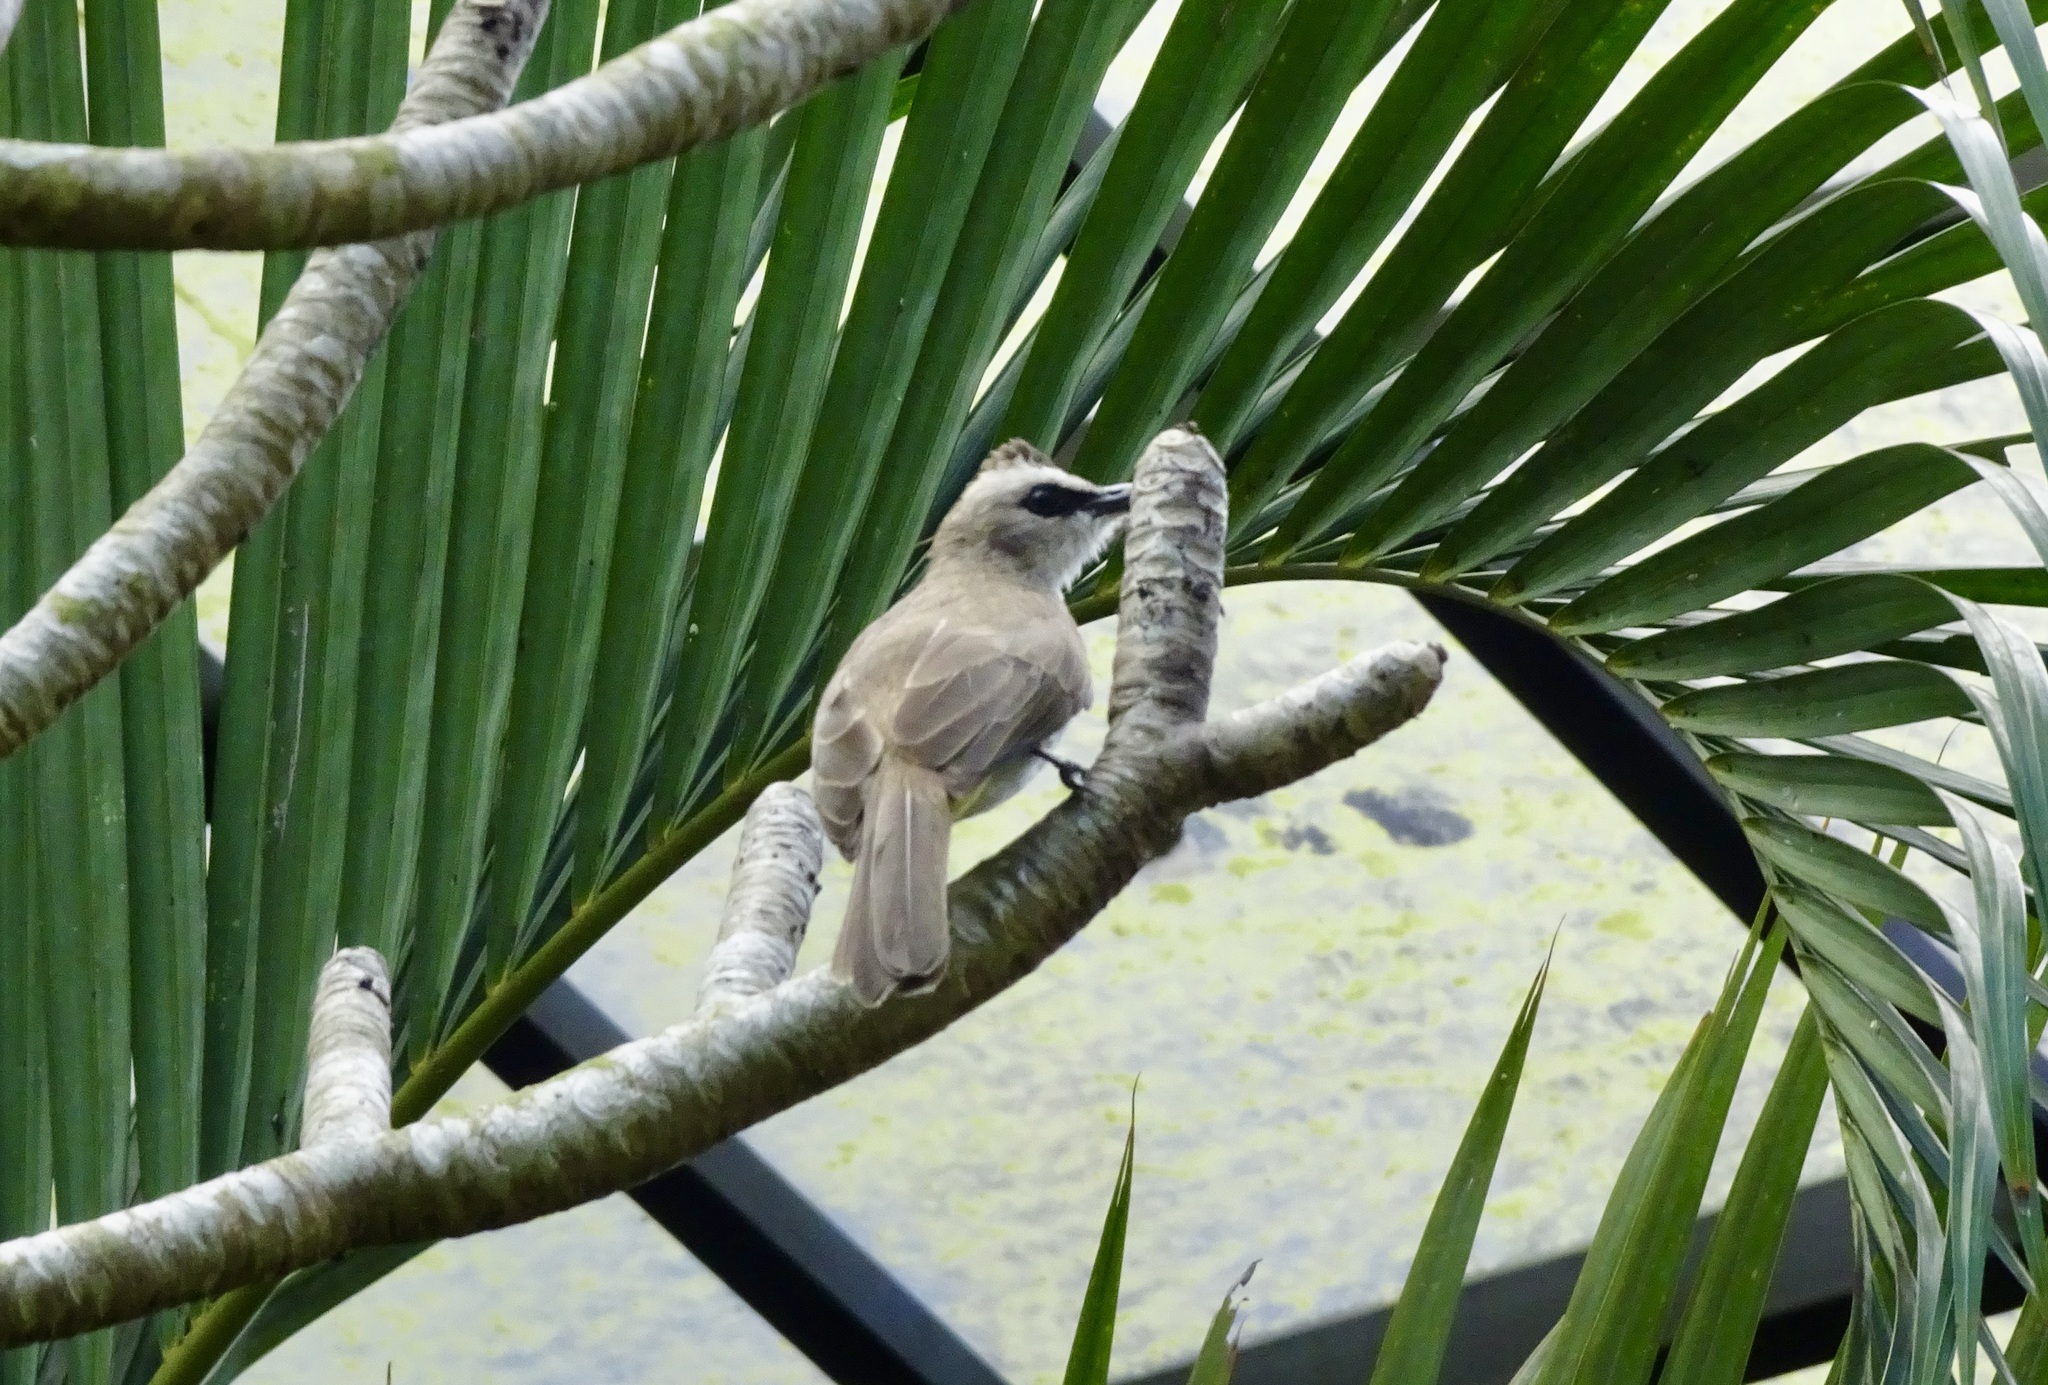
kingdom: Animalia
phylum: Chordata
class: Aves
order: Passeriformes
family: Pycnonotidae
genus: Pycnonotus
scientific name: Pycnonotus goiavier
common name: Yellow-vented bulbul
